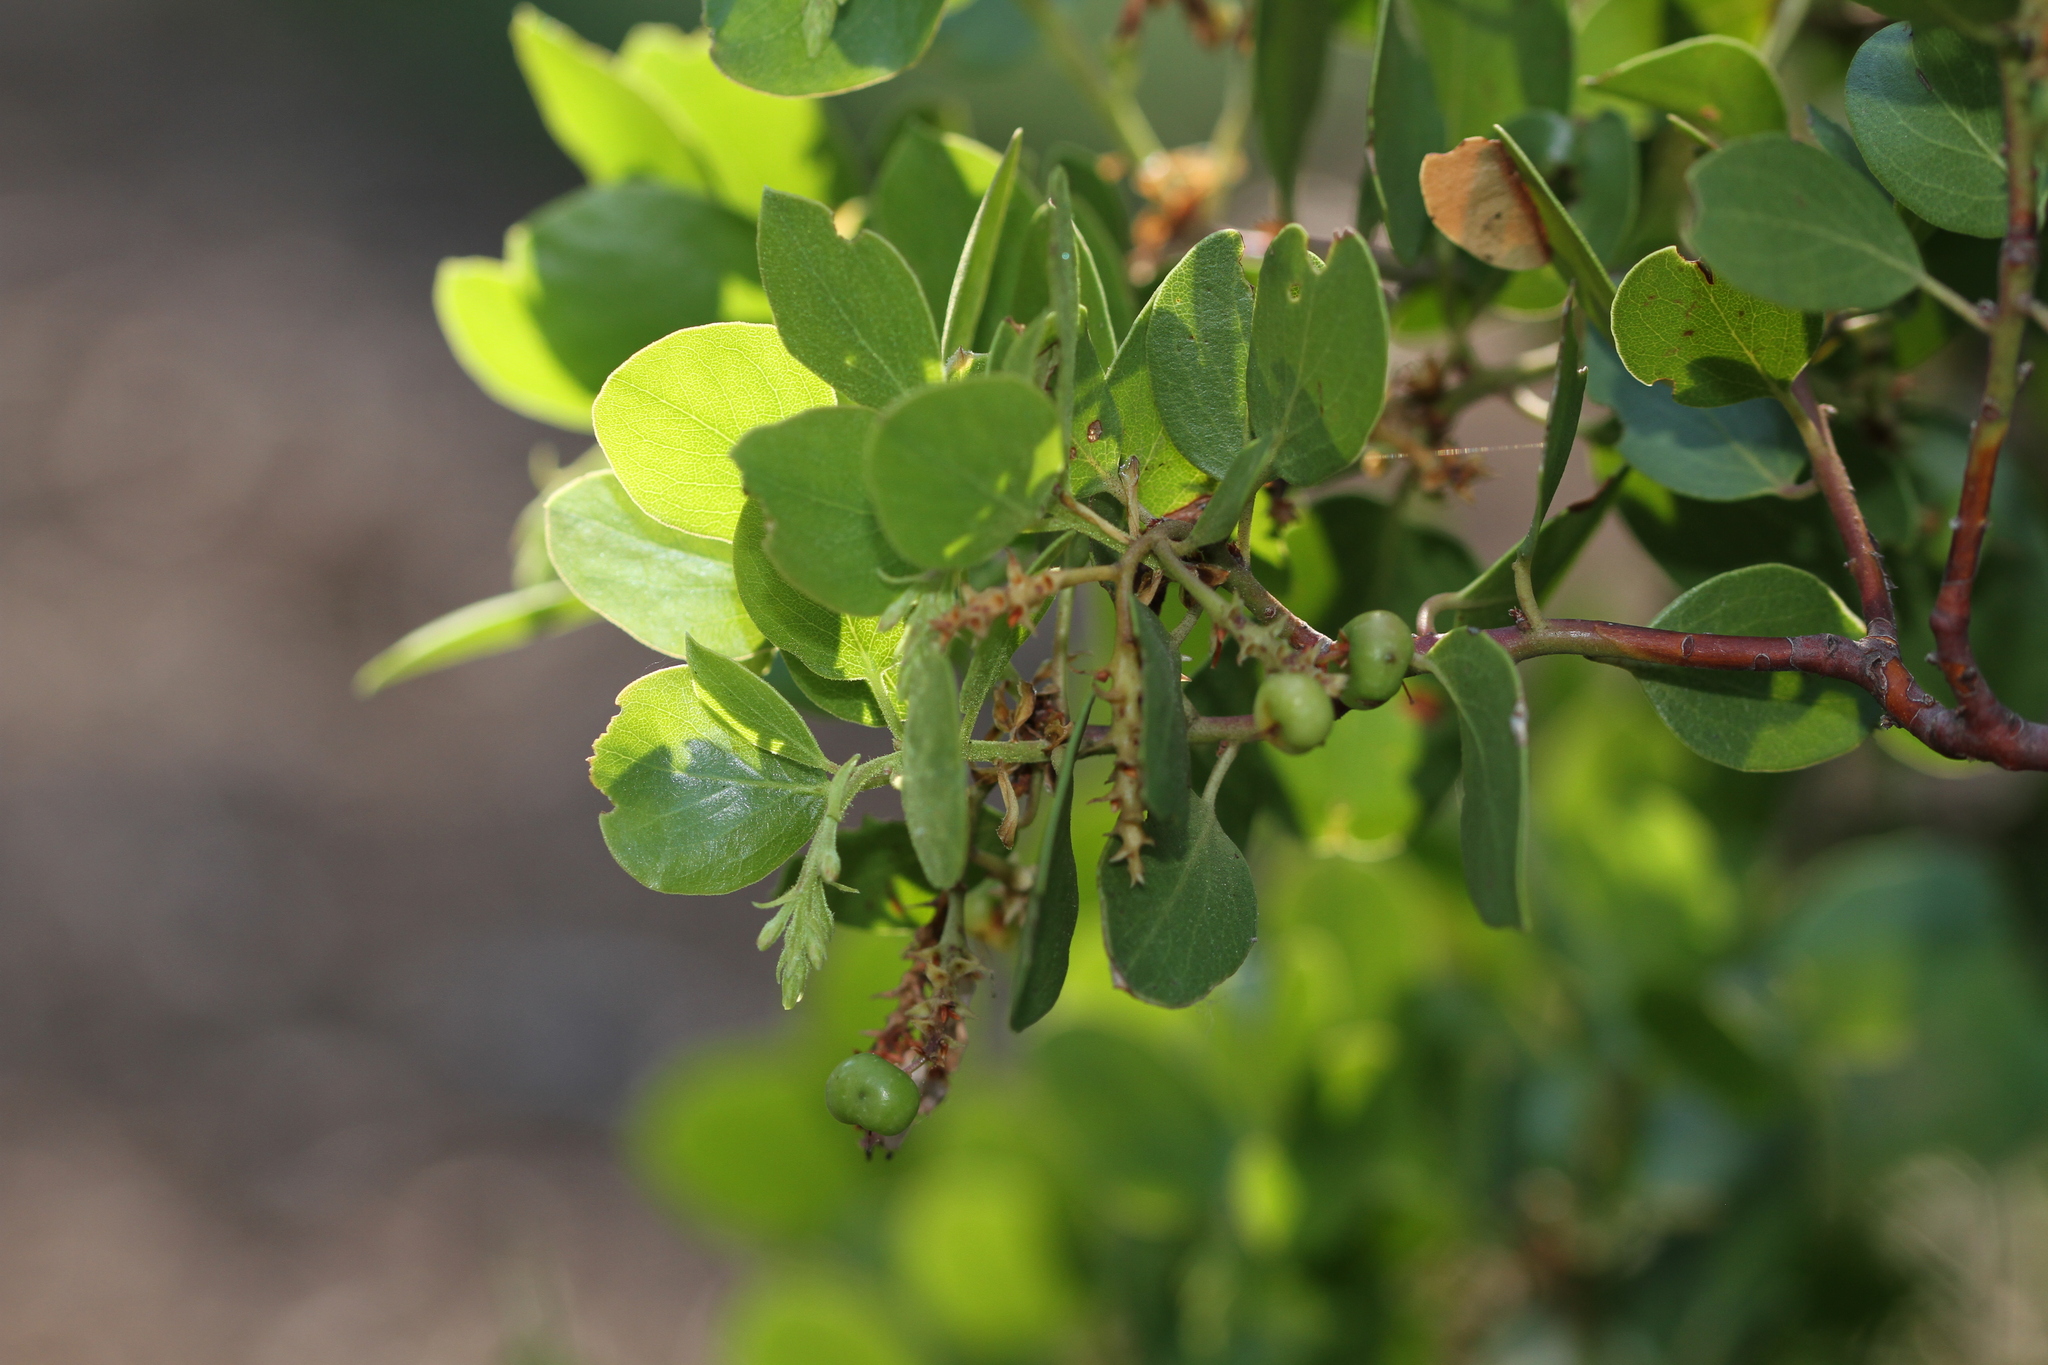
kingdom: Plantae
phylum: Tracheophyta
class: Magnoliopsida
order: Ericales
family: Ericaceae
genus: Arctostaphylos
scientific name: Arctostaphylos patula
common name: Green-leaf manzanita
